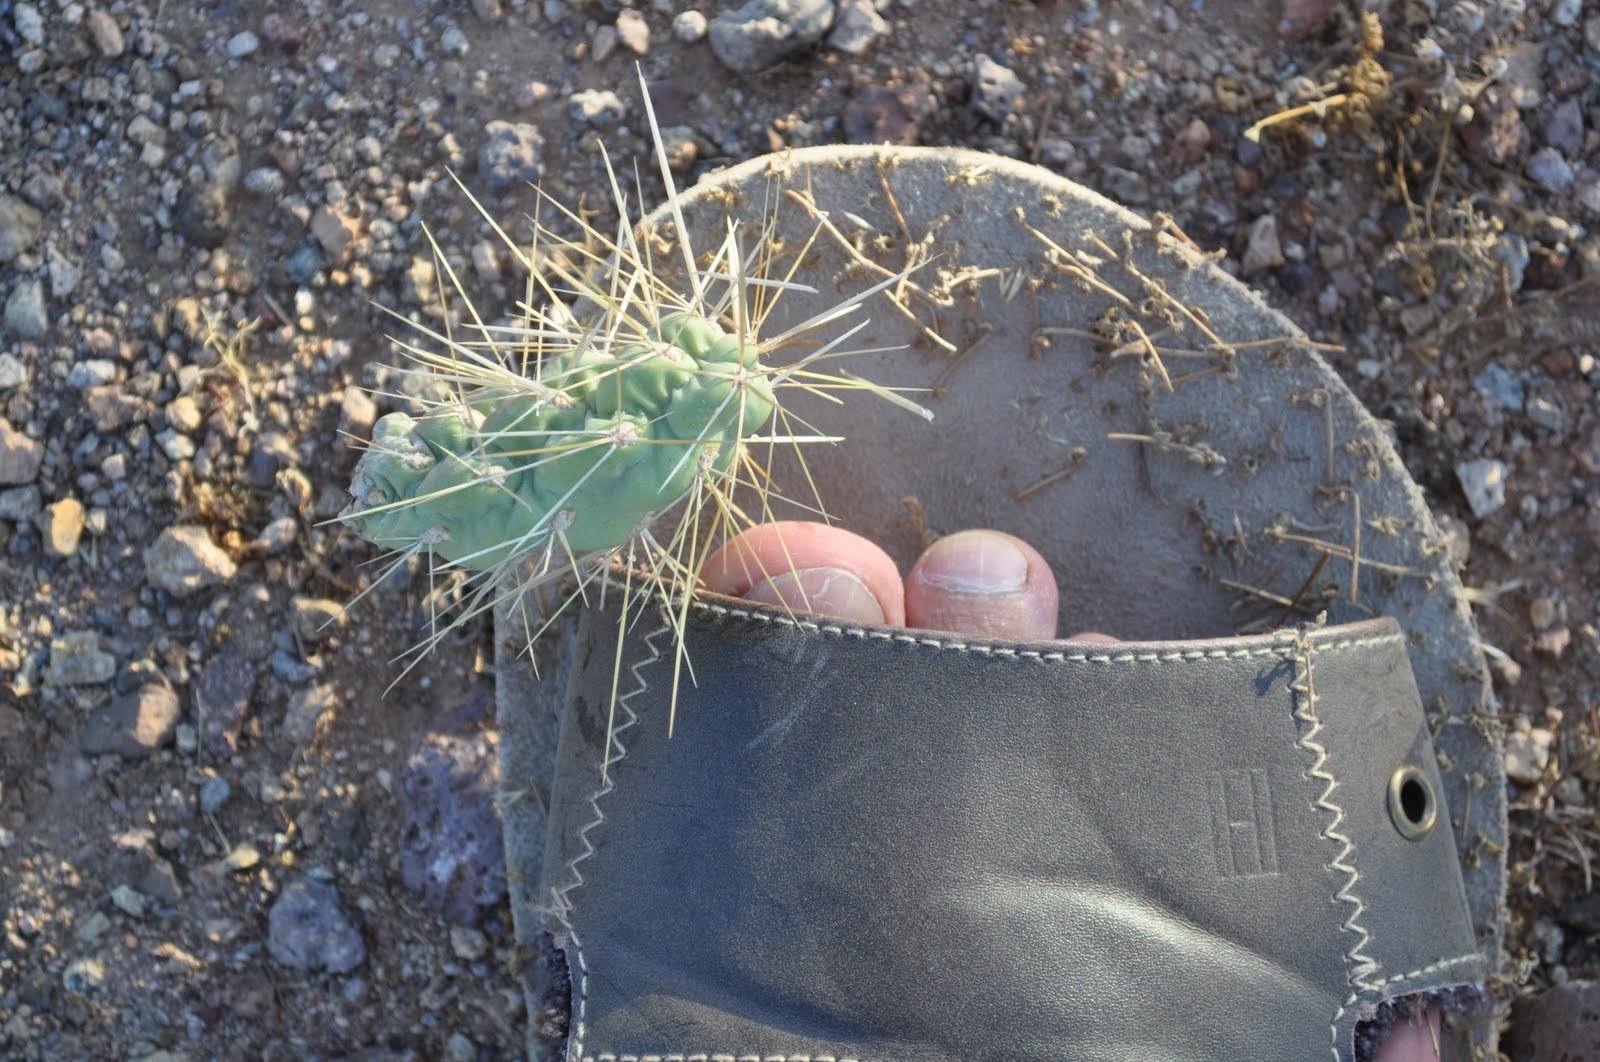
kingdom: Plantae
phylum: Tracheophyta
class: Magnoliopsida
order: Caryophyllales
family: Cactaceae
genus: Cylindropuntia
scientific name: Cylindropuntia fulgida
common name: Jumping cholla
